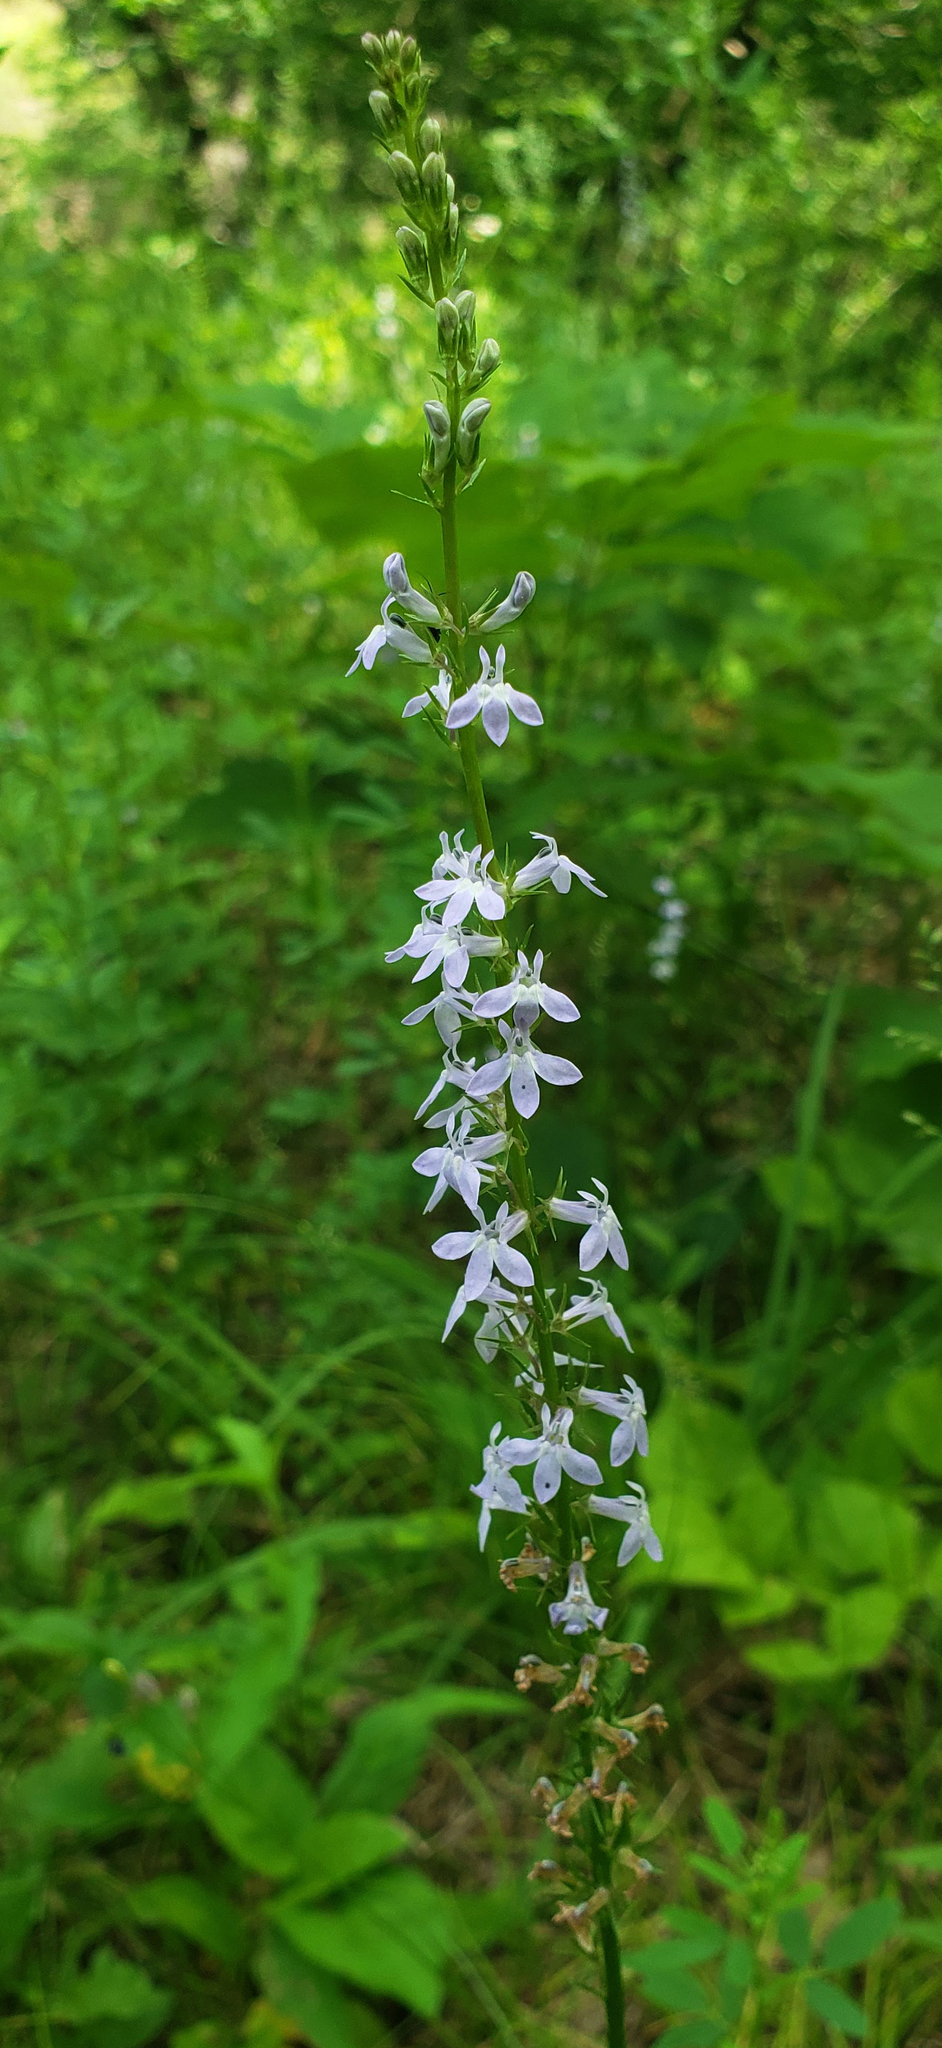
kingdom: Plantae
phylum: Tracheophyta
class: Magnoliopsida
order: Asterales
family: Campanulaceae
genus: Lobelia
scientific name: Lobelia spicata
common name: Pale-spike lobelia
